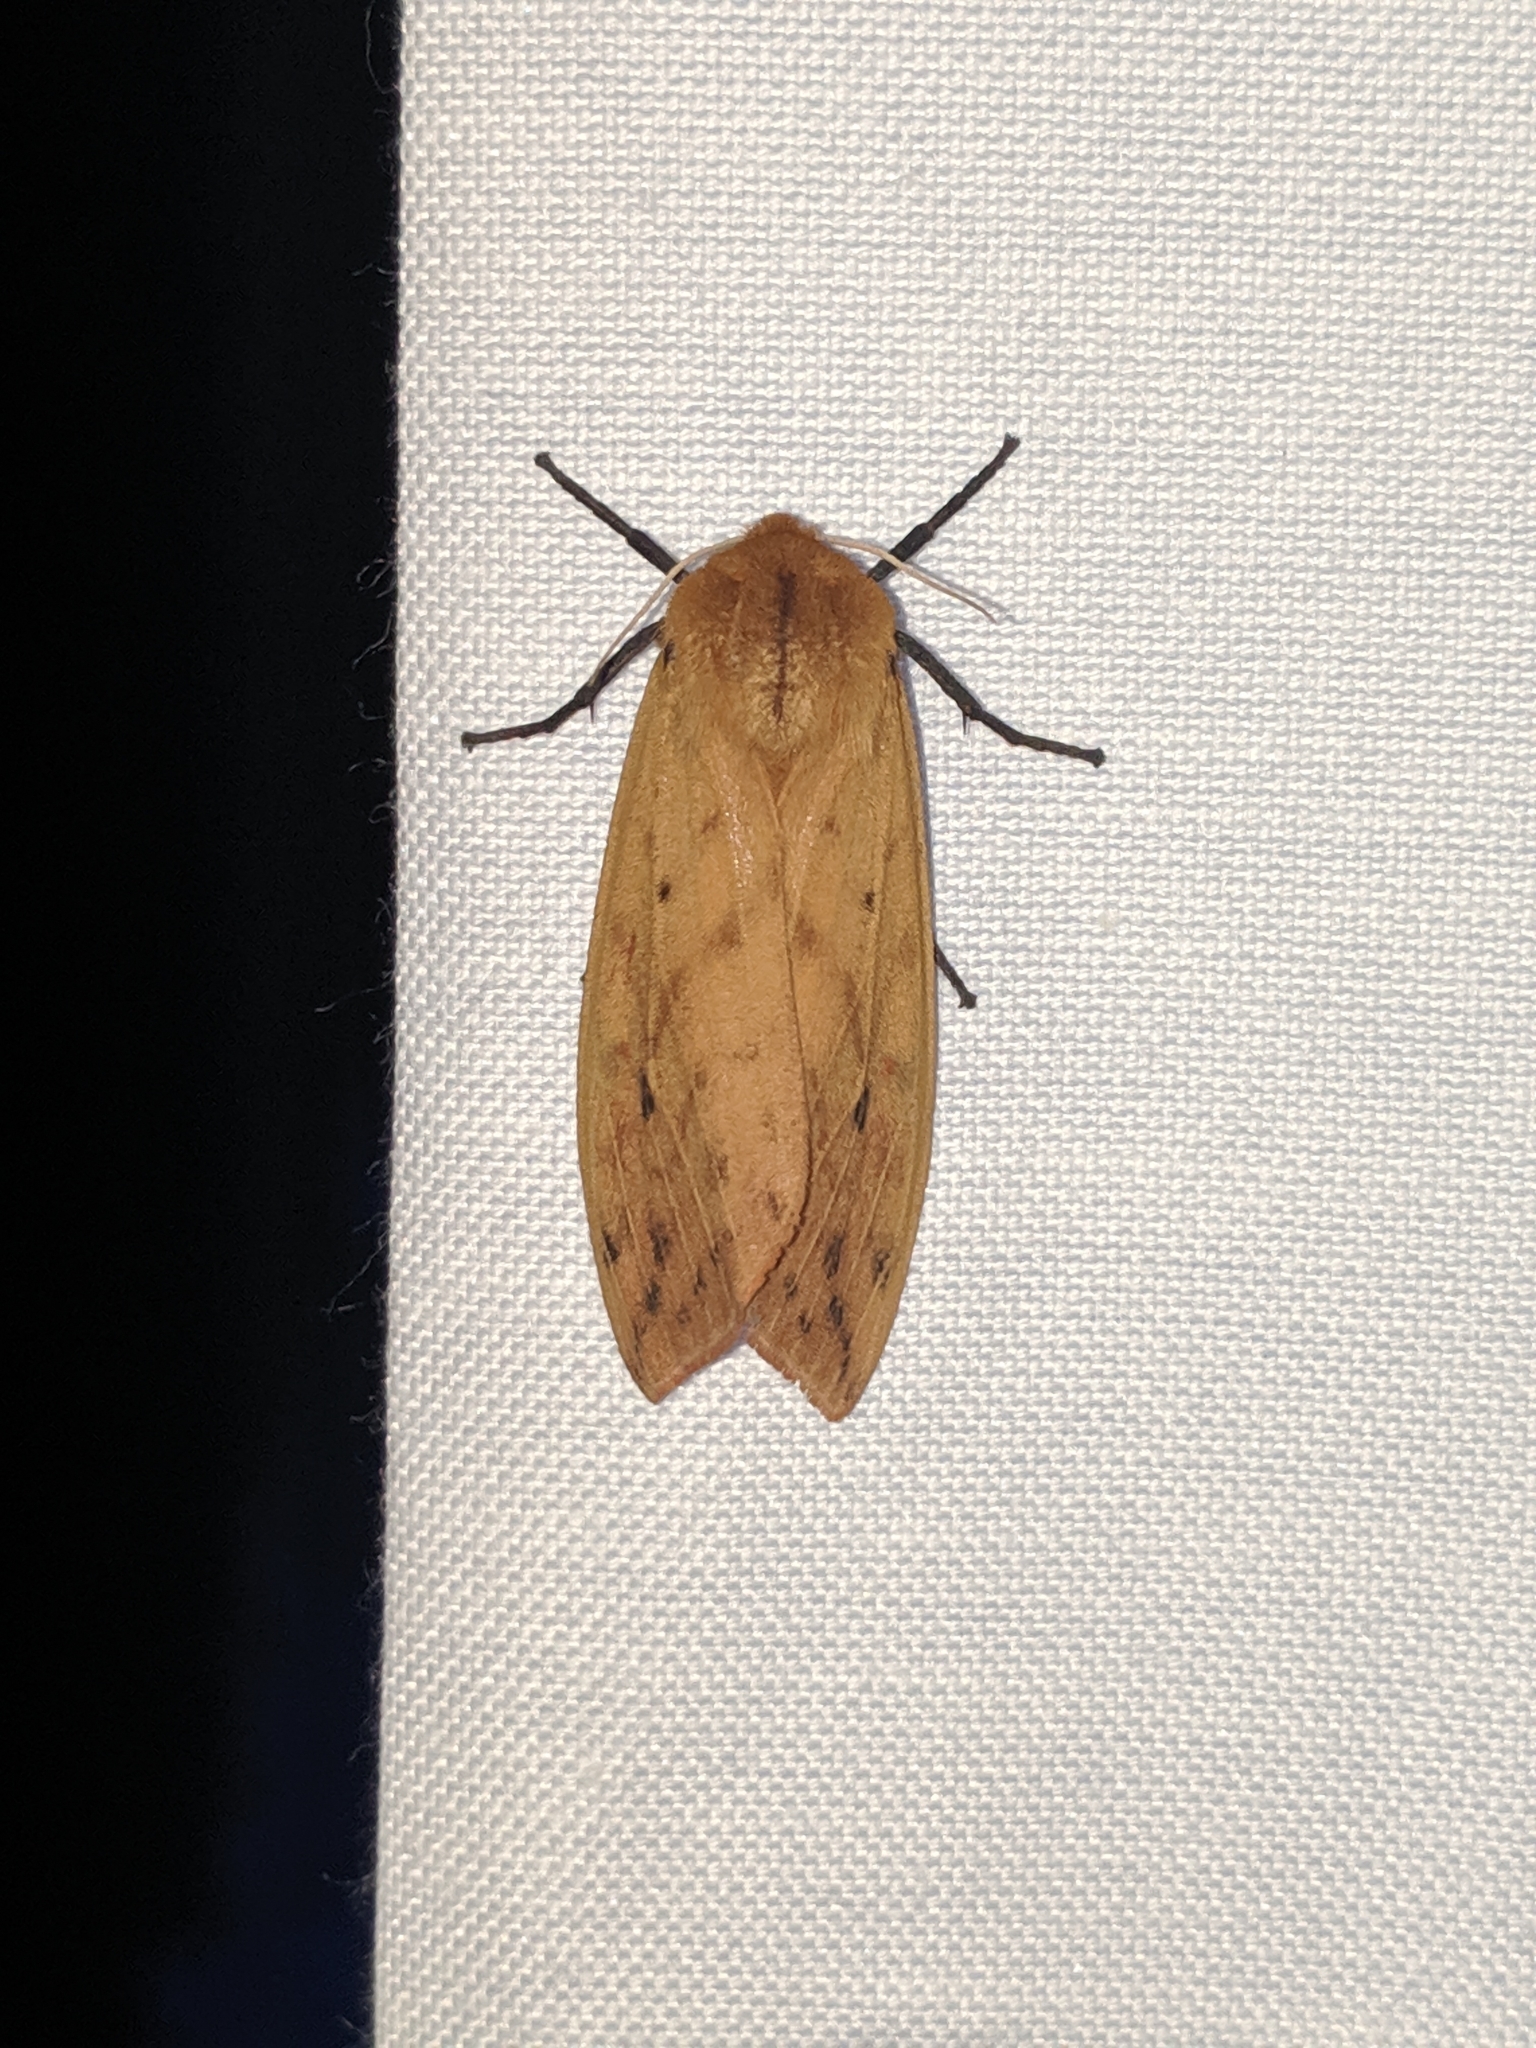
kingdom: Animalia
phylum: Arthropoda
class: Insecta
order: Lepidoptera
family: Erebidae
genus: Pyrrharctia
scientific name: Pyrrharctia isabella
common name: Isabella tiger moth
